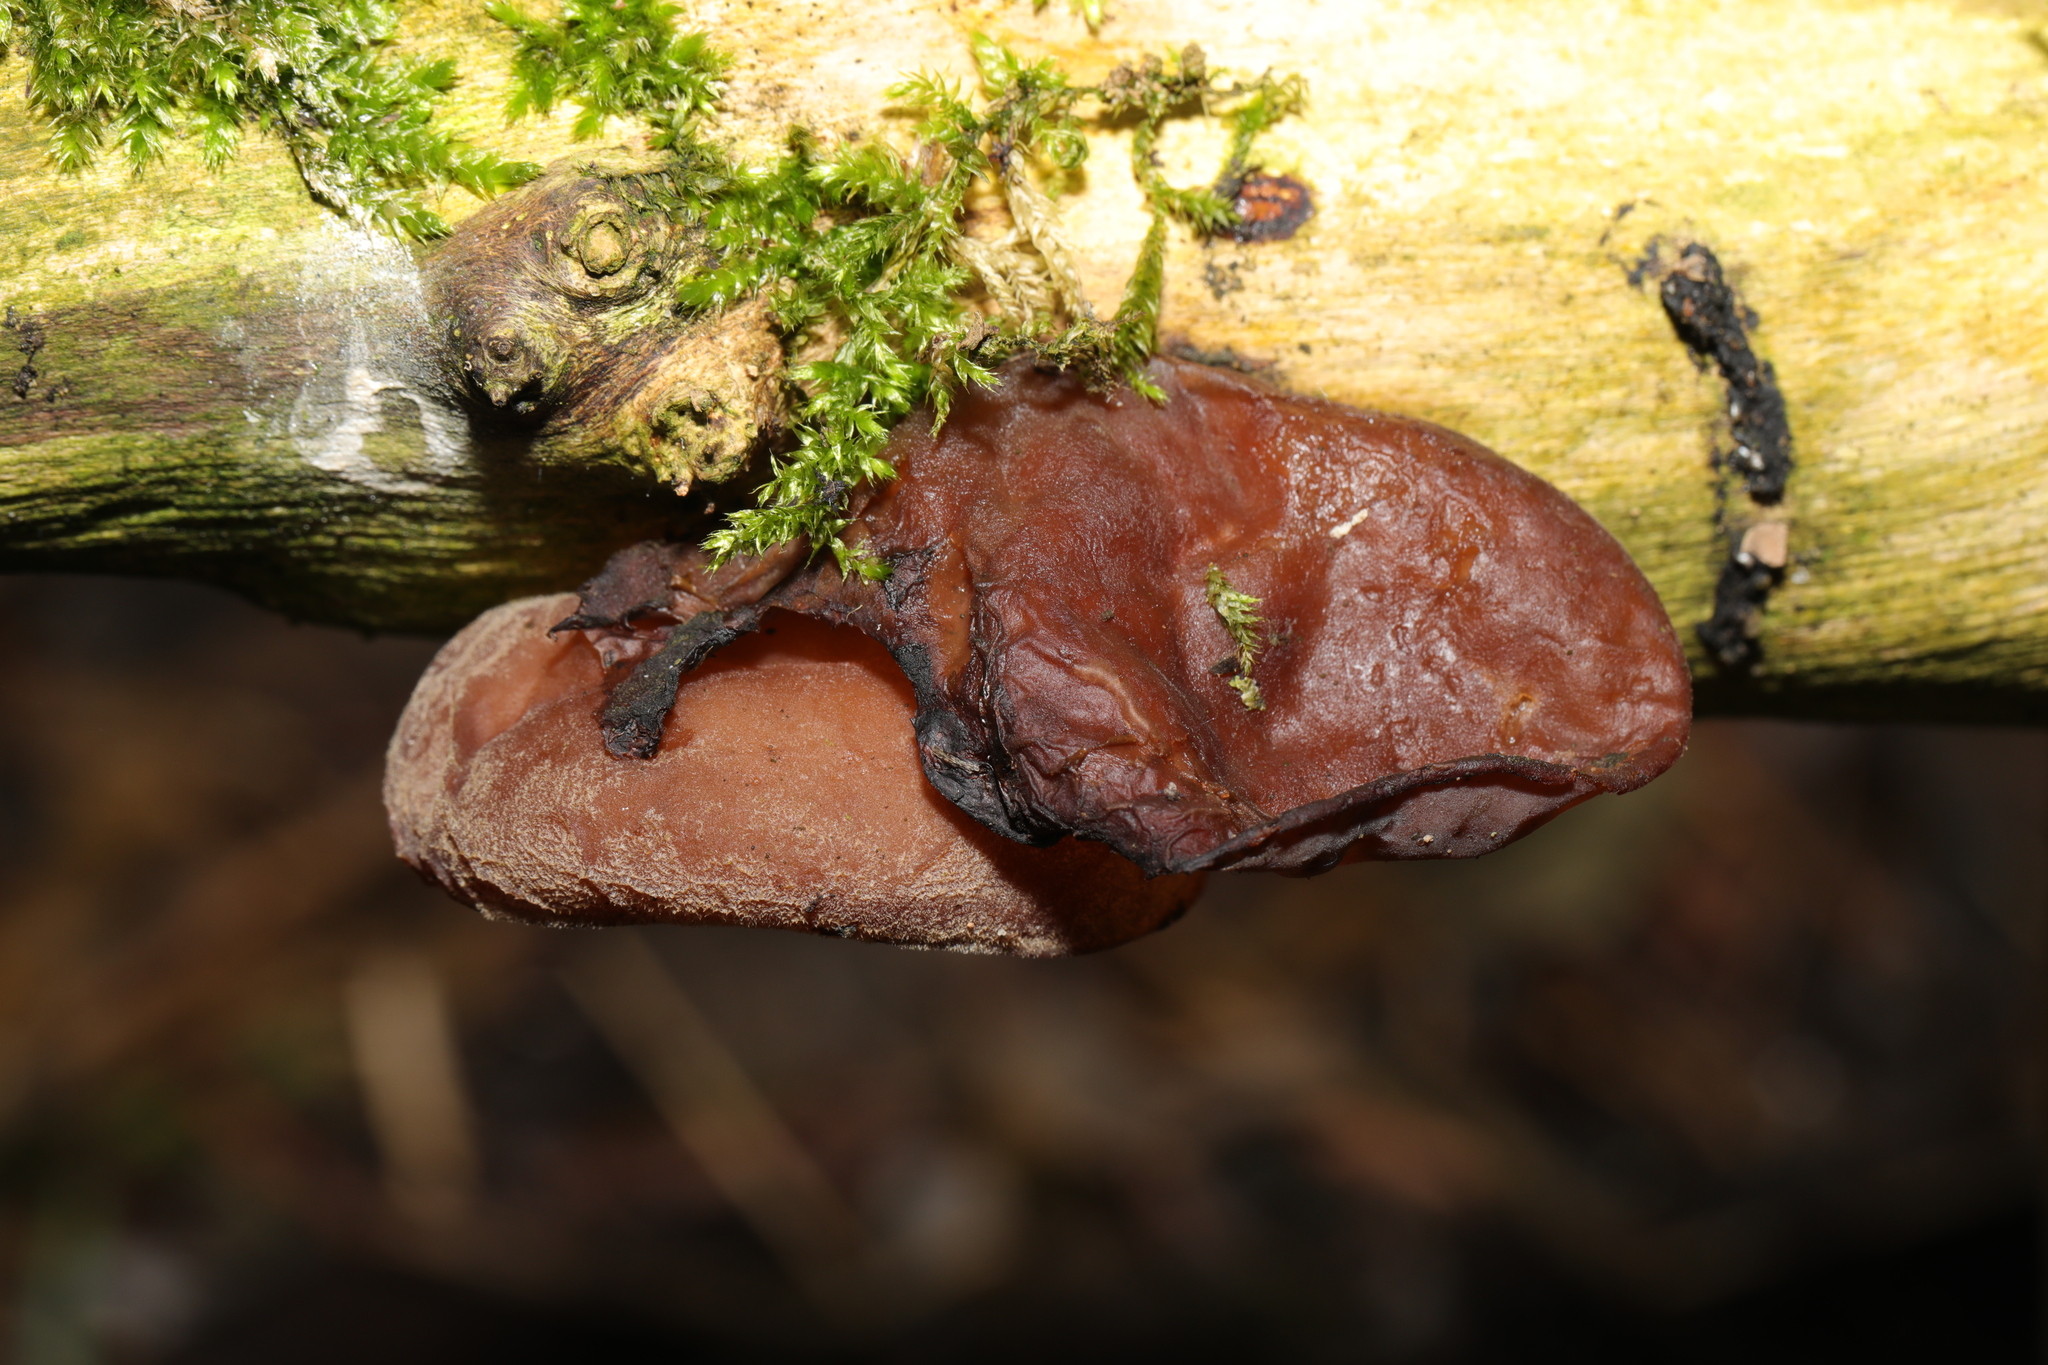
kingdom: Fungi
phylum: Basidiomycota
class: Agaricomycetes
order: Auriculariales
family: Auriculariaceae
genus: Auricularia
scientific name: Auricularia auricula-judae
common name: Jelly ear
